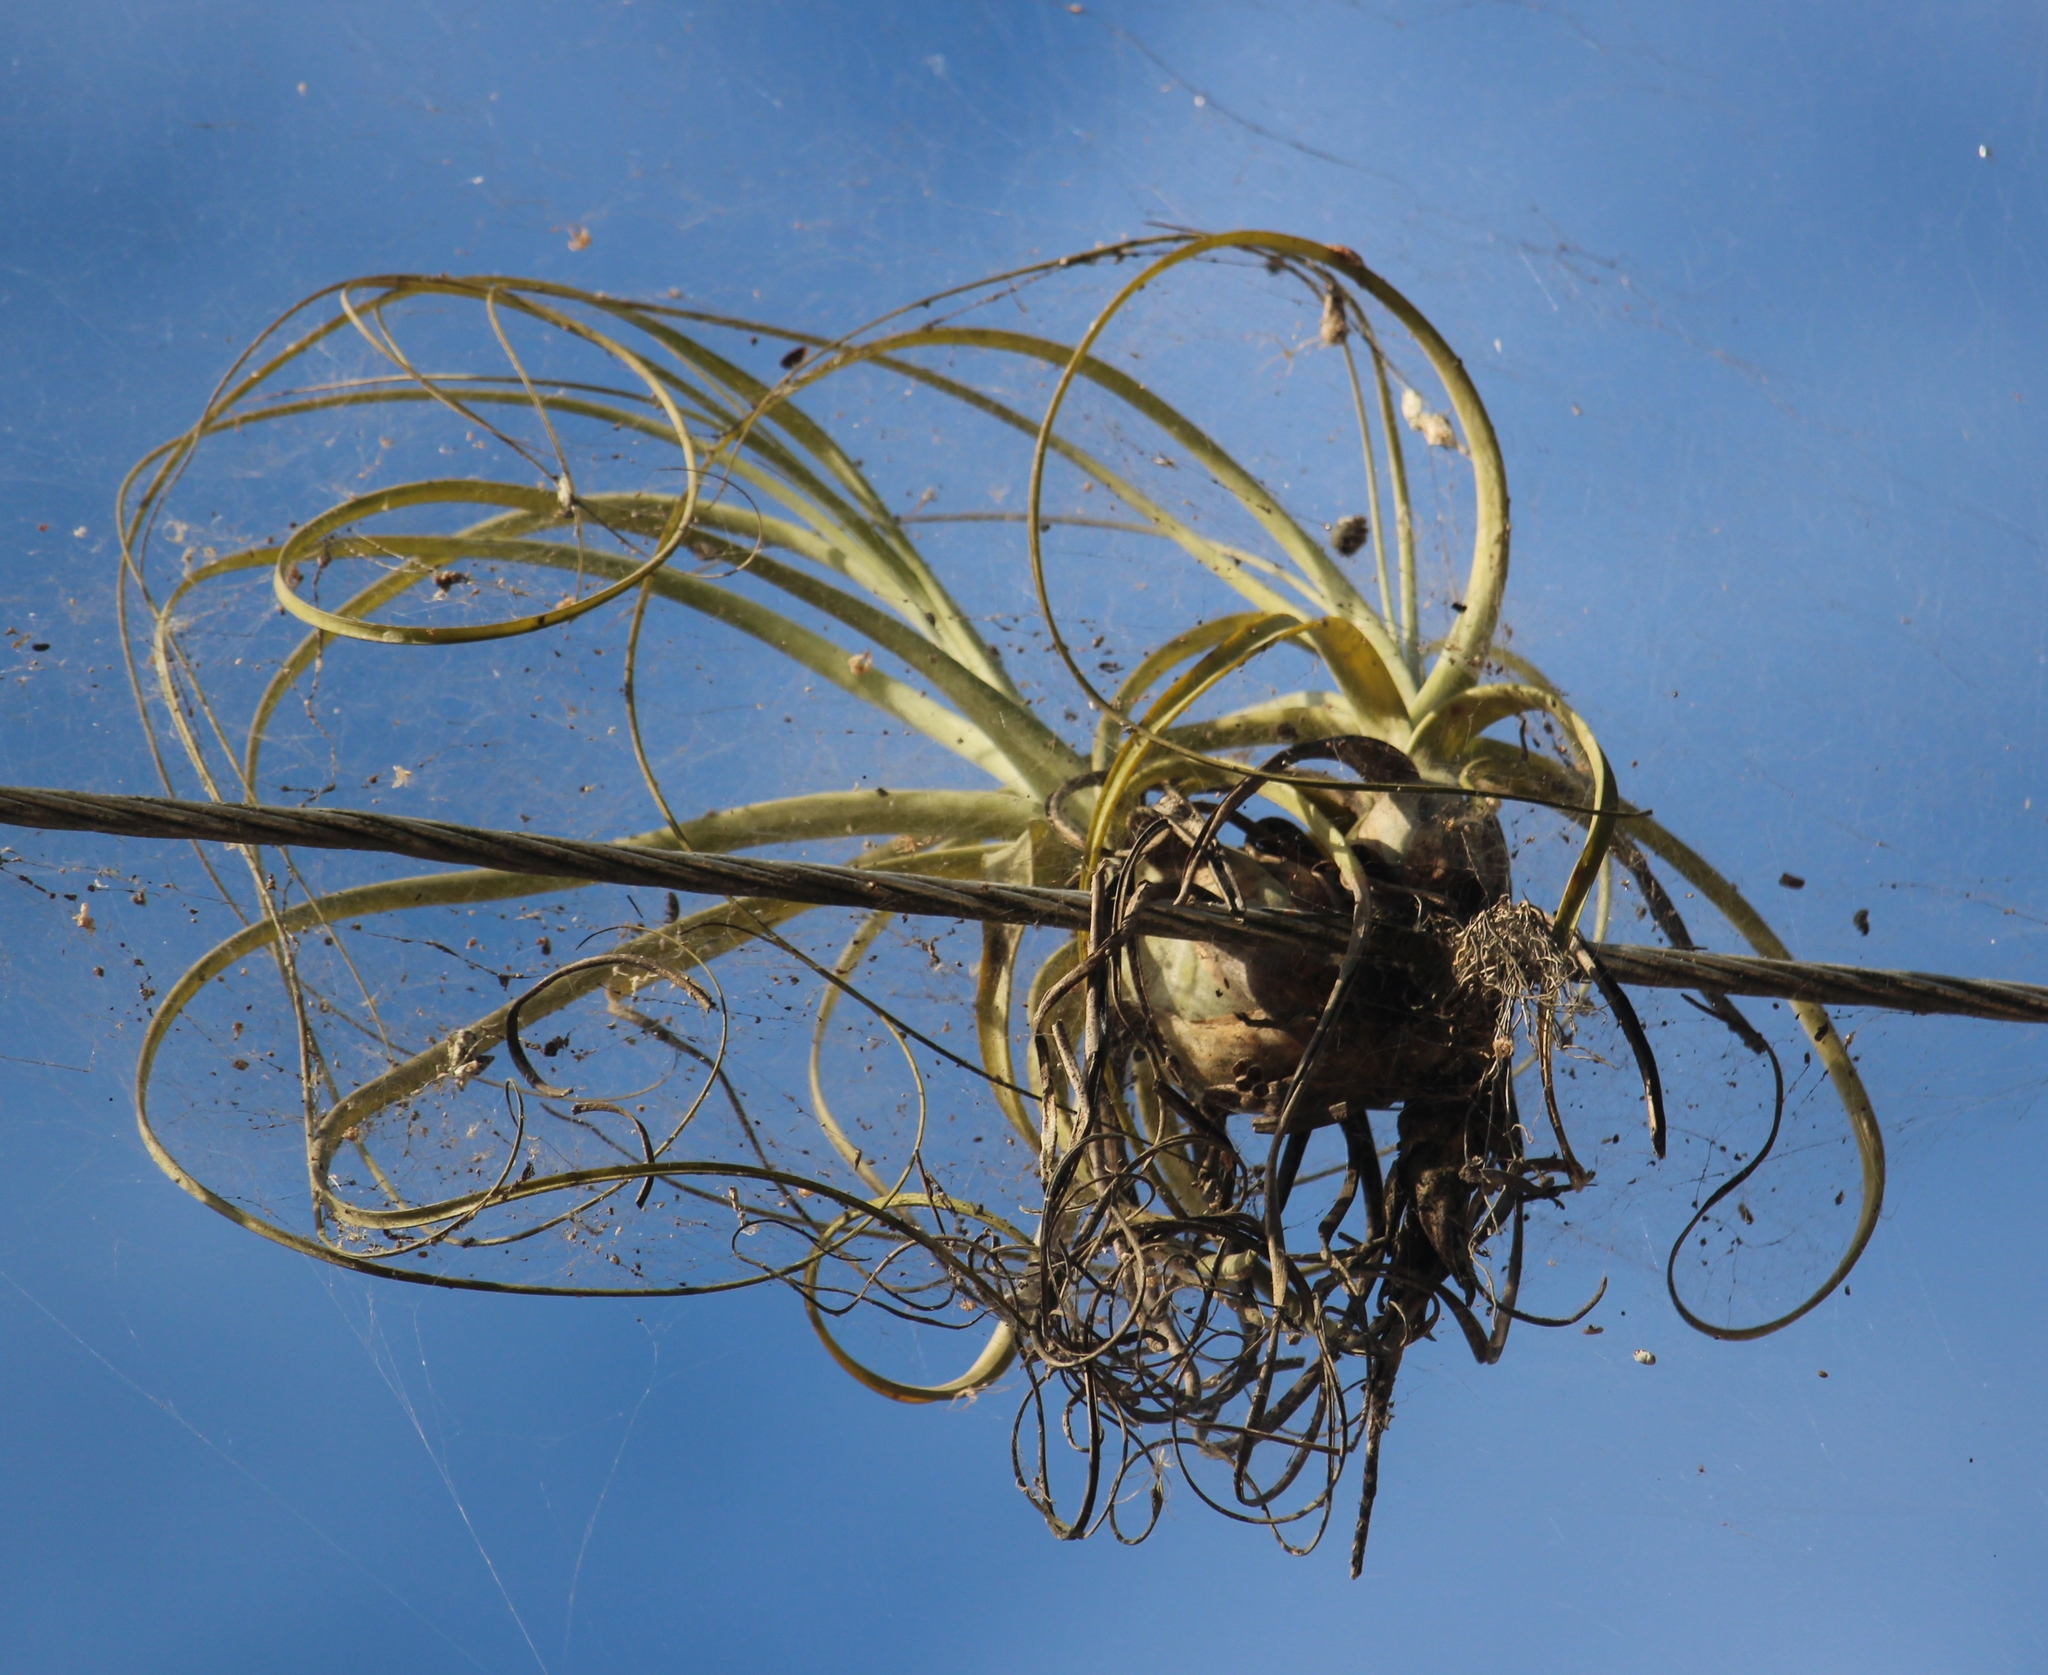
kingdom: Plantae
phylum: Tracheophyta
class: Liliopsida
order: Poales
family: Bromeliaceae
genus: Tillandsia
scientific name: Tillandsia balbisiana
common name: Northern needleleaf
